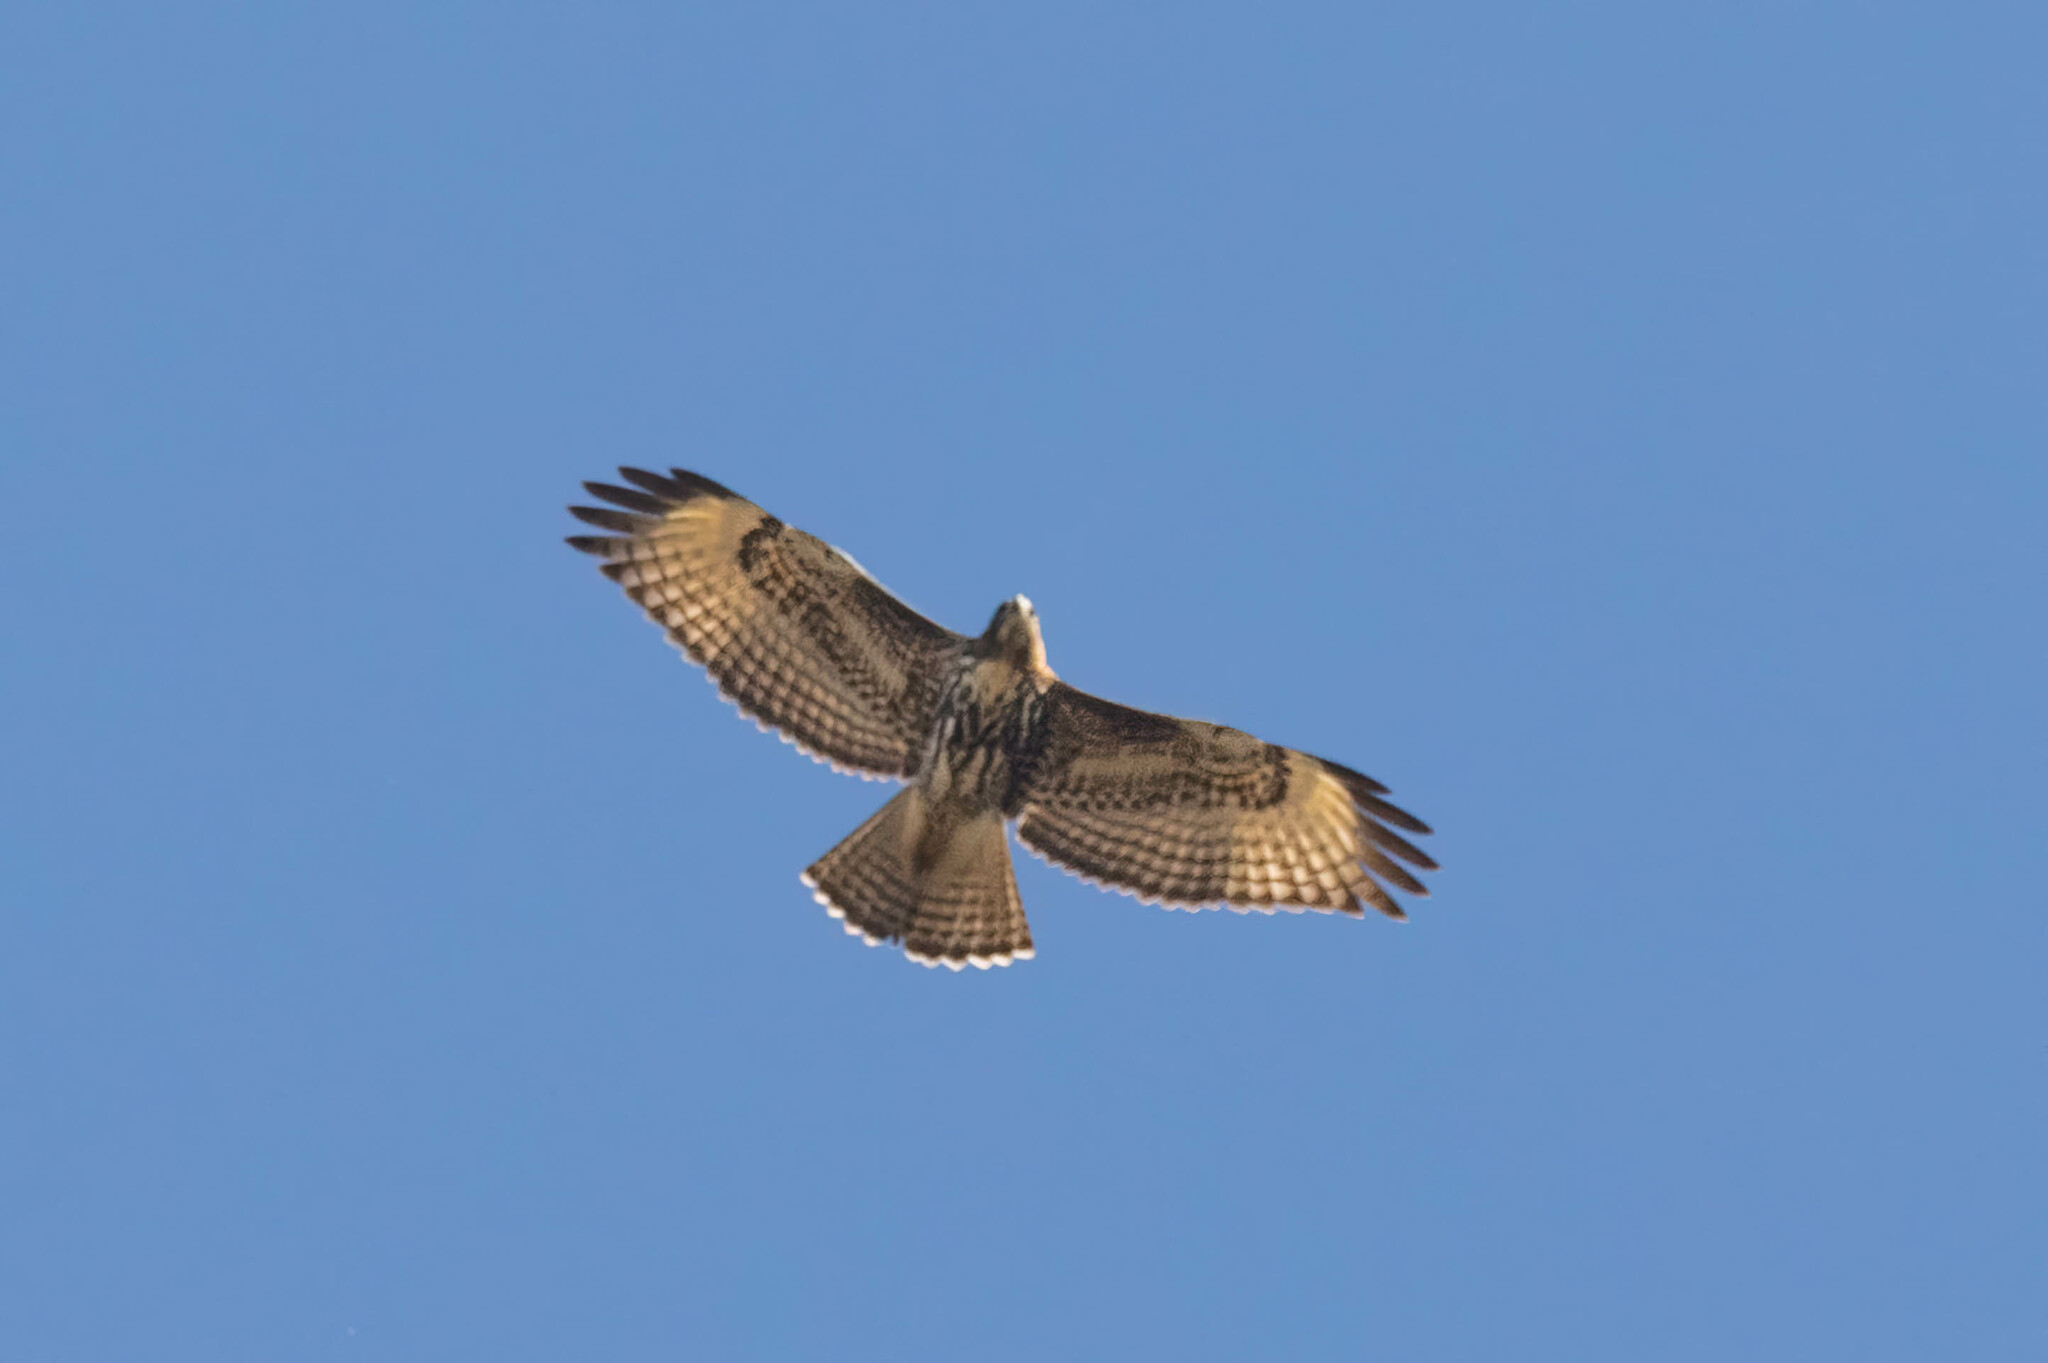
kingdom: Animalia
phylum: Chordata
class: Aves
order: Accipitriformes
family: Accipitridae
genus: Buteo
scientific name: Buteo jamaicensis
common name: Red-tailed hawk
